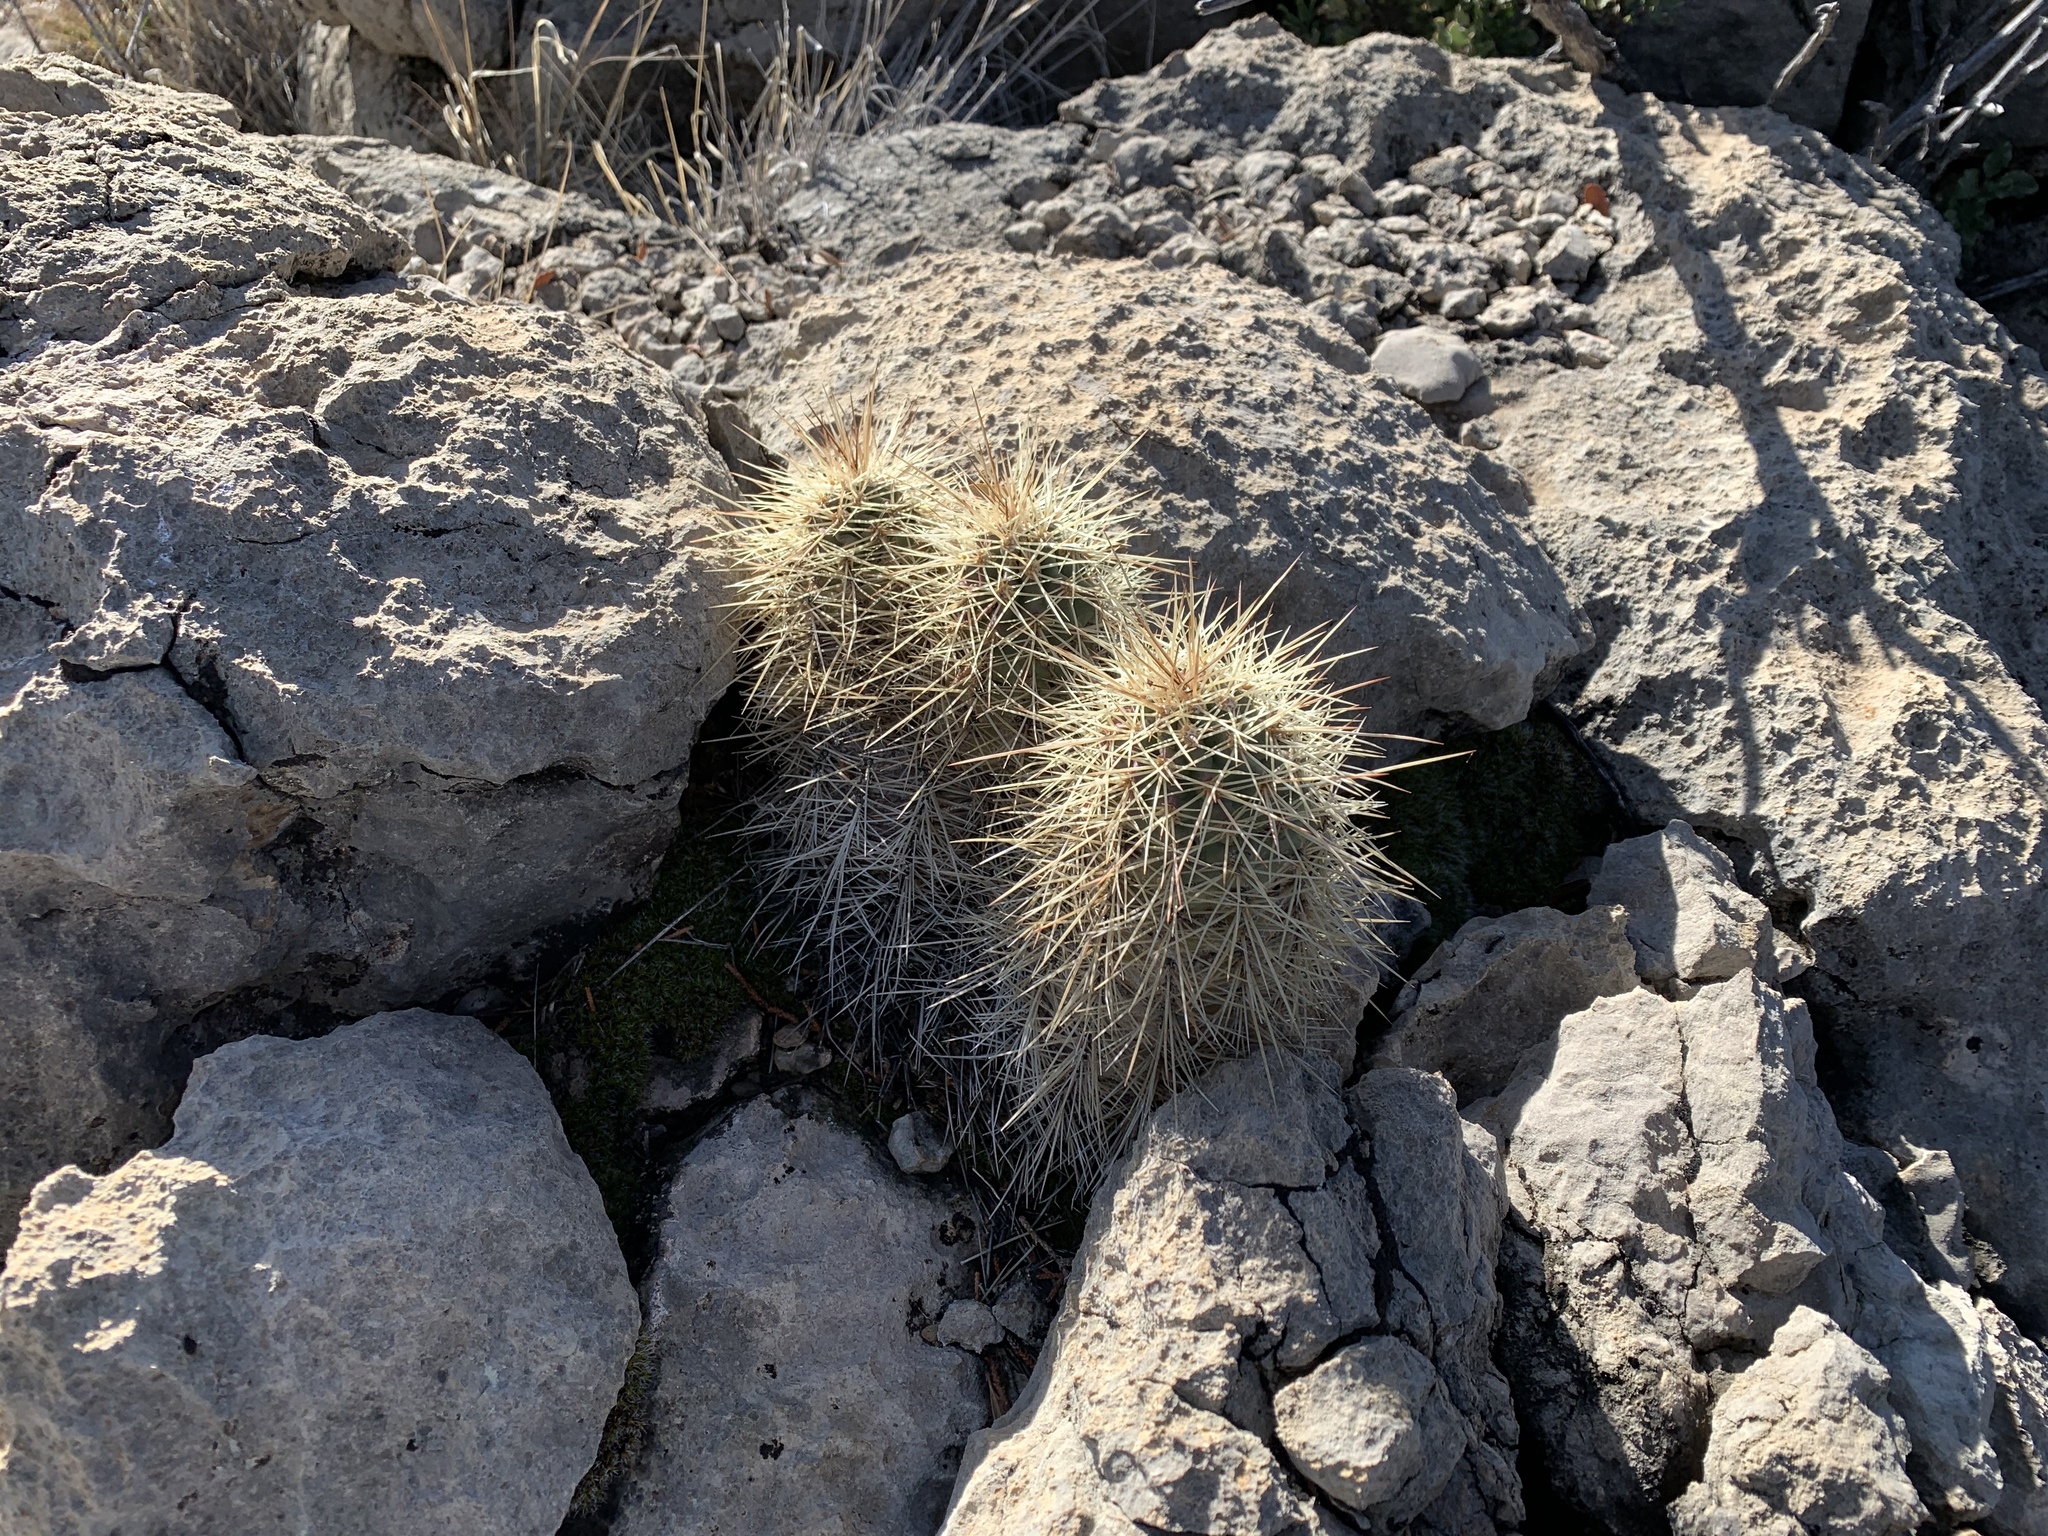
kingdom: Plantae
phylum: Tracheophyta
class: Magnoliopsida
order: Caryophyllales
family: Cactaceae
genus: Echinocereus
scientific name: Echinocereus coccineus
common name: Scarlet hedgehog cactus
